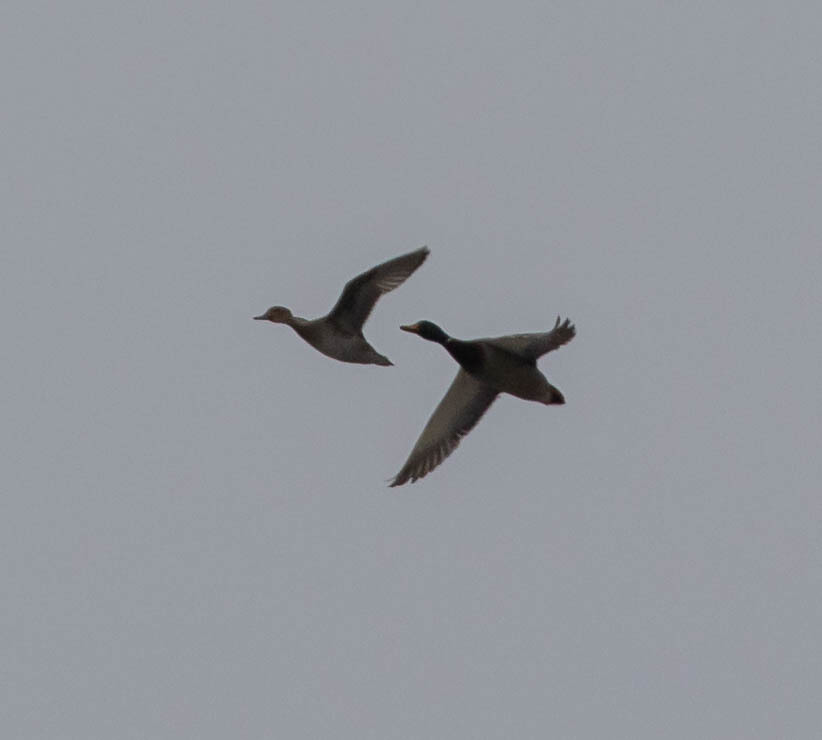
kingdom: Animalia
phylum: Chordata
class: Aves
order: Anseriformes
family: Anatidae
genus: Anas
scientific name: Anas platyrhynchos
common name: Mallard
